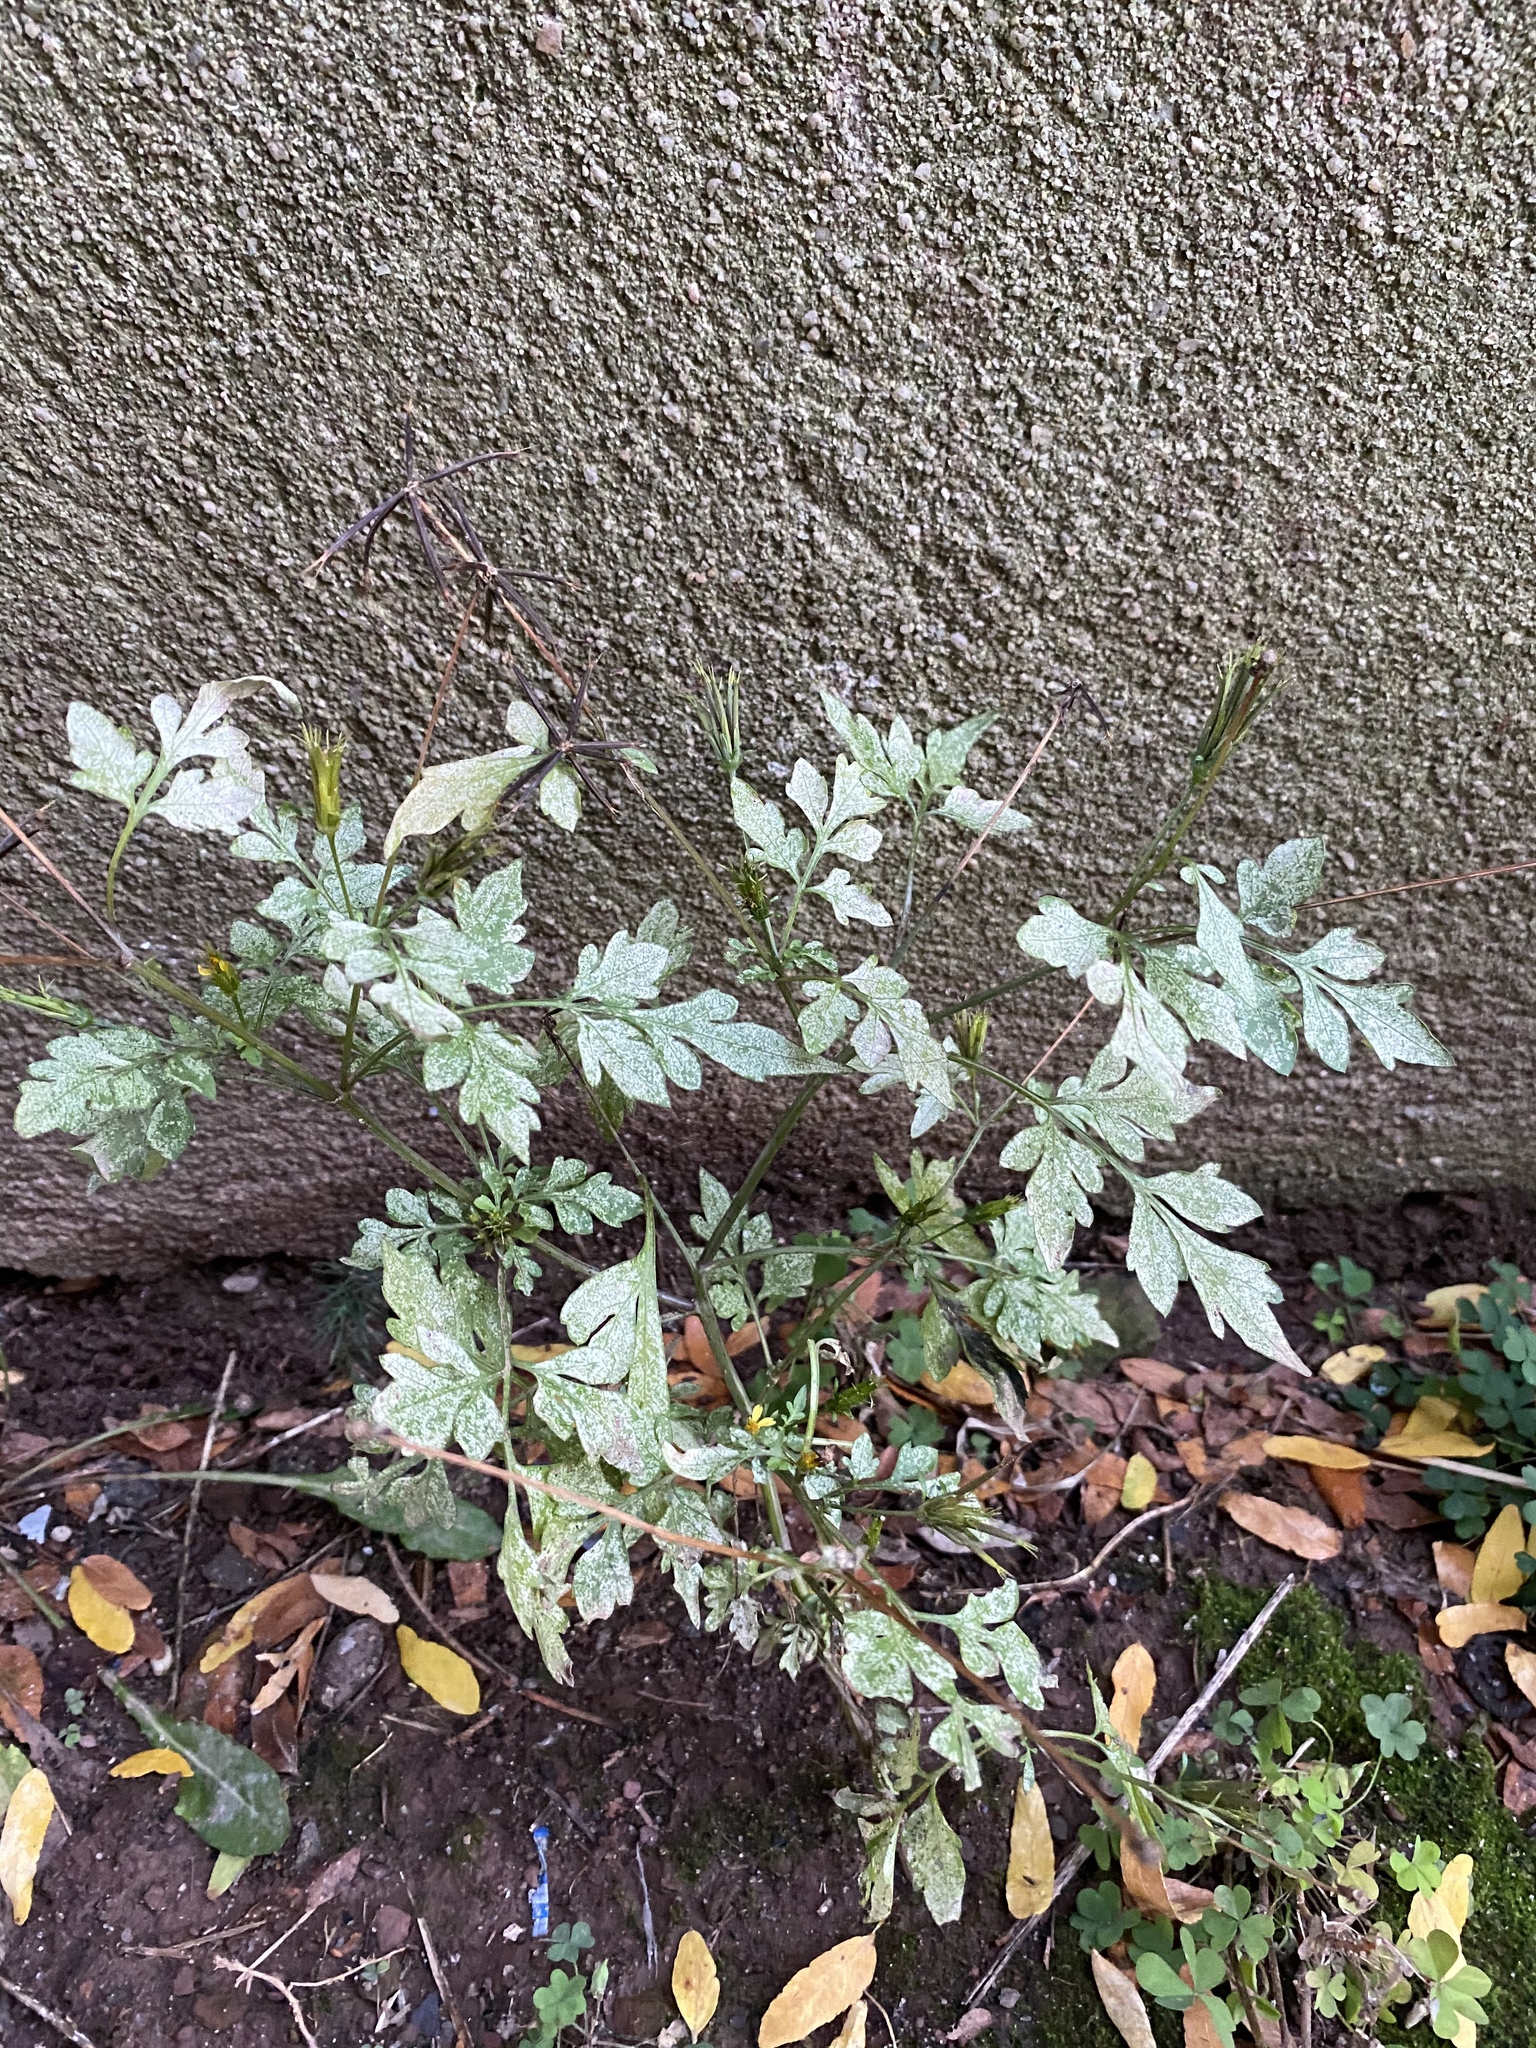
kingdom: Plantae
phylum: Tracheophyta
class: Magnoliopsida
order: Asterales
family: Asteraceae
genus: Bidens
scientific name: Bidens bipinnata
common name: Spanish-needles
